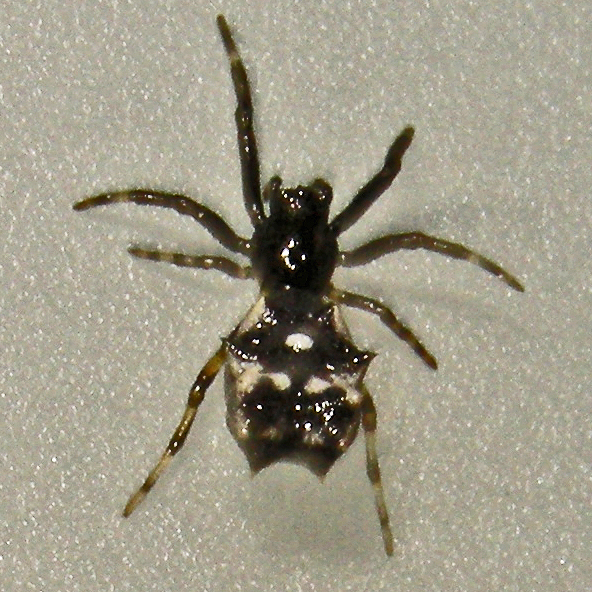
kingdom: Animalia
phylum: Arthropoda
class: Arachnida
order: Araneae
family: Araneidae
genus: Micrathena
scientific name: Micrathena gracilis
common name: Orb weavers
